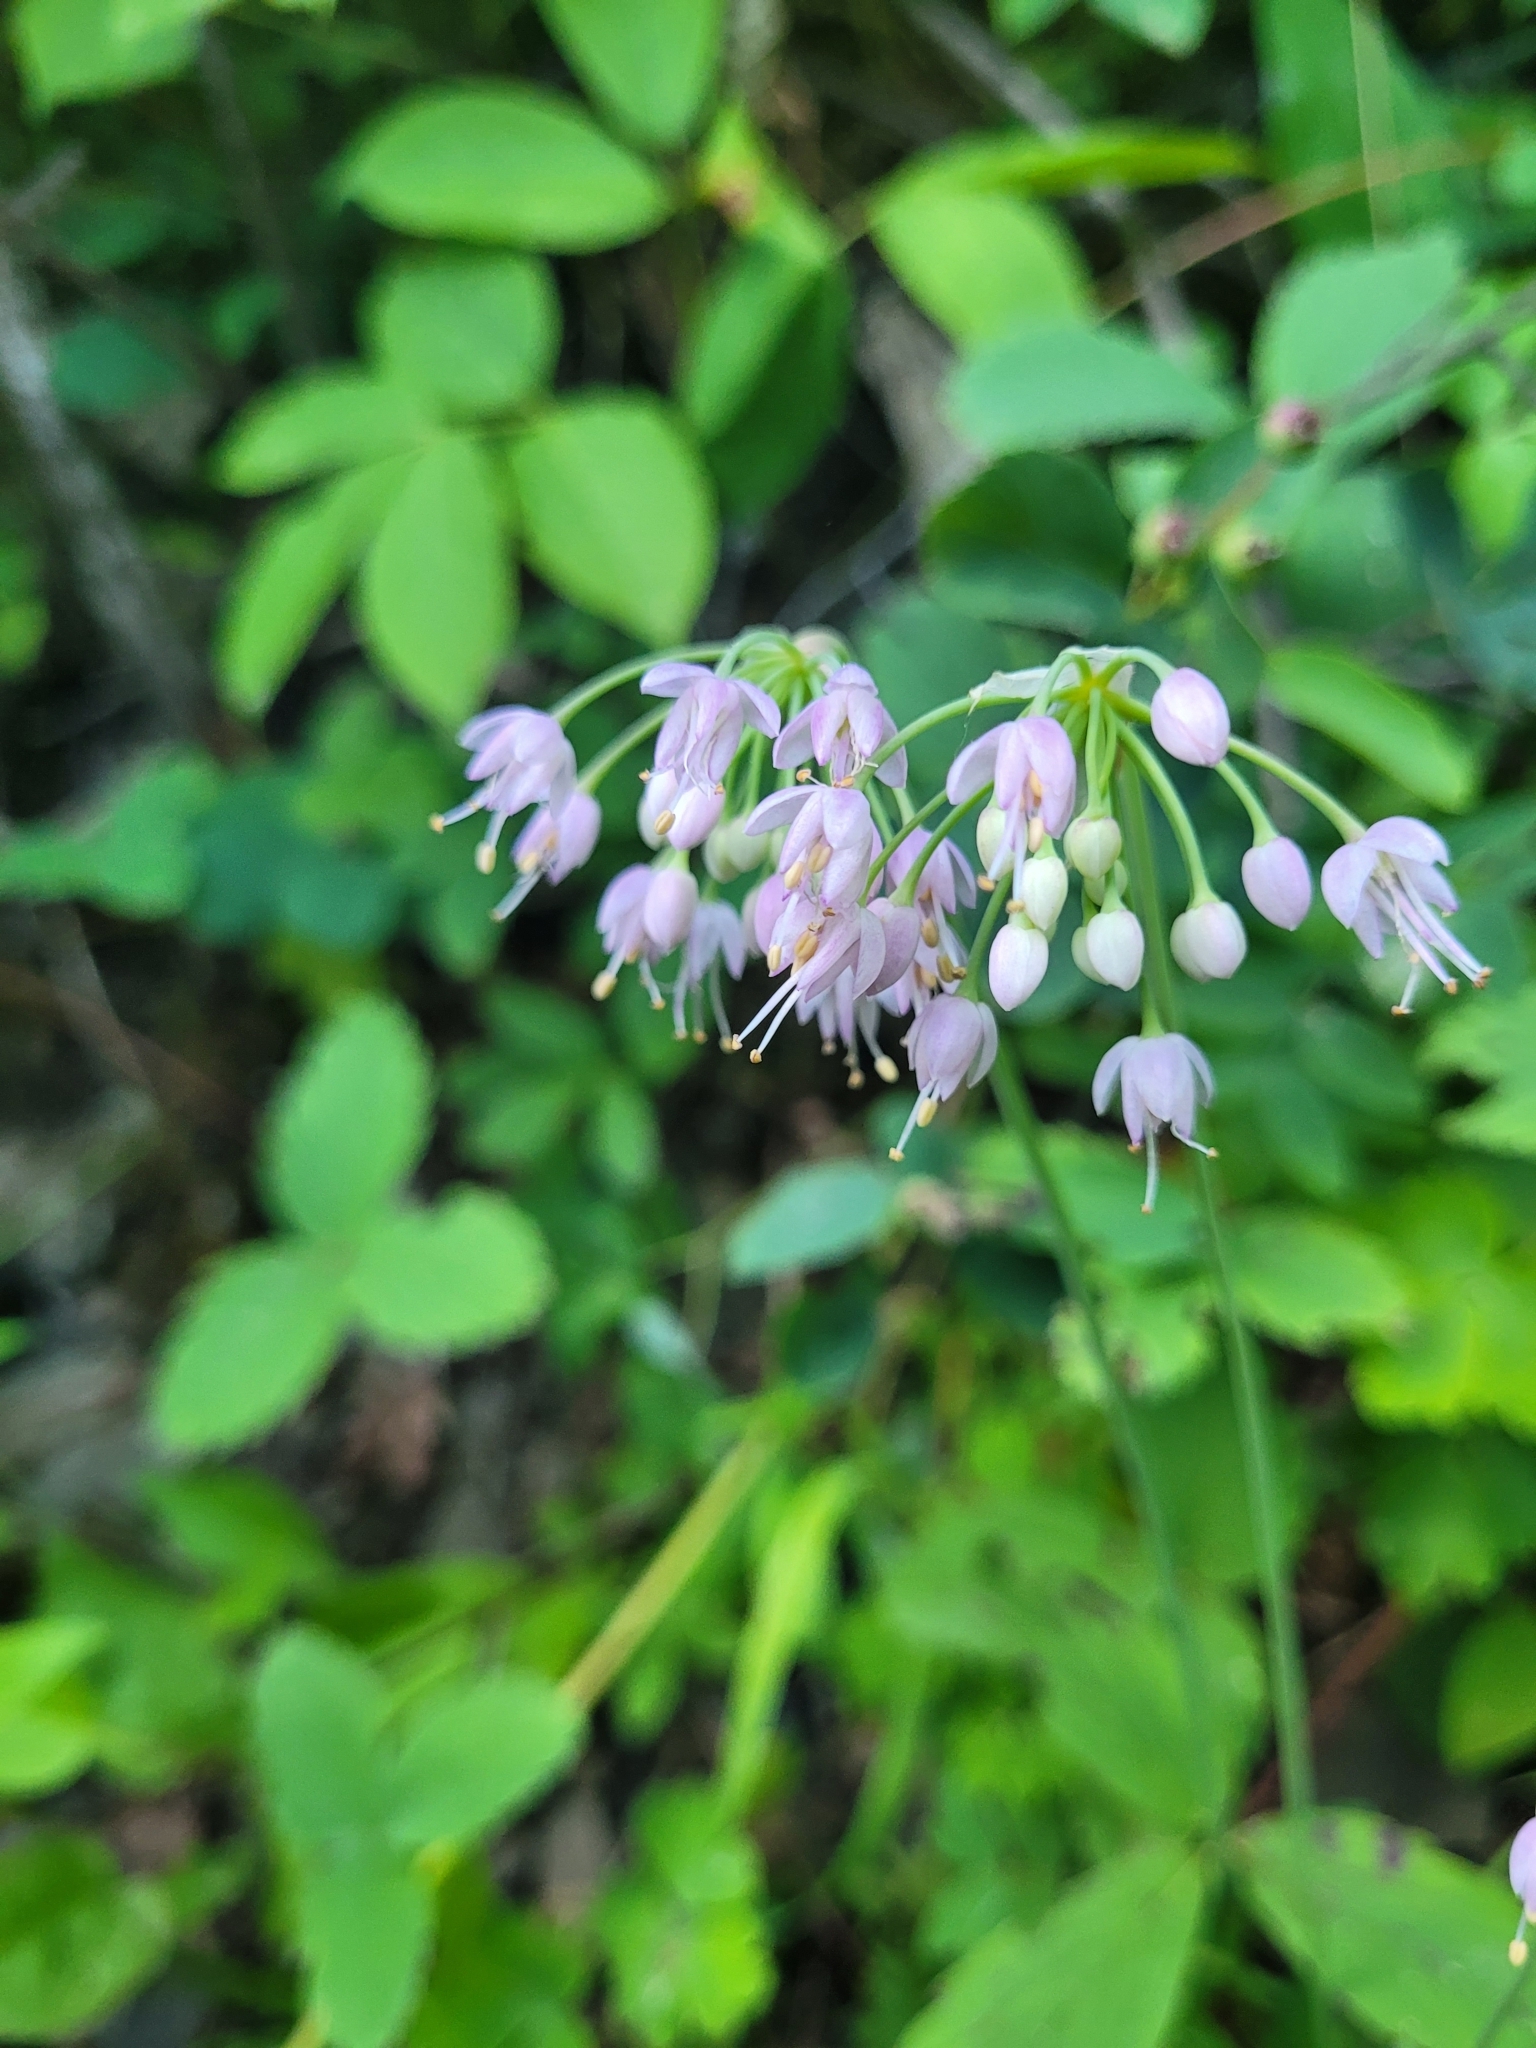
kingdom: Plantae
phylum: Tracheophyta
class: Liliopsida
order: Asparagales
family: Amaryllidaceae
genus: Allium
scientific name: Allium cernuum
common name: Nodding onion
